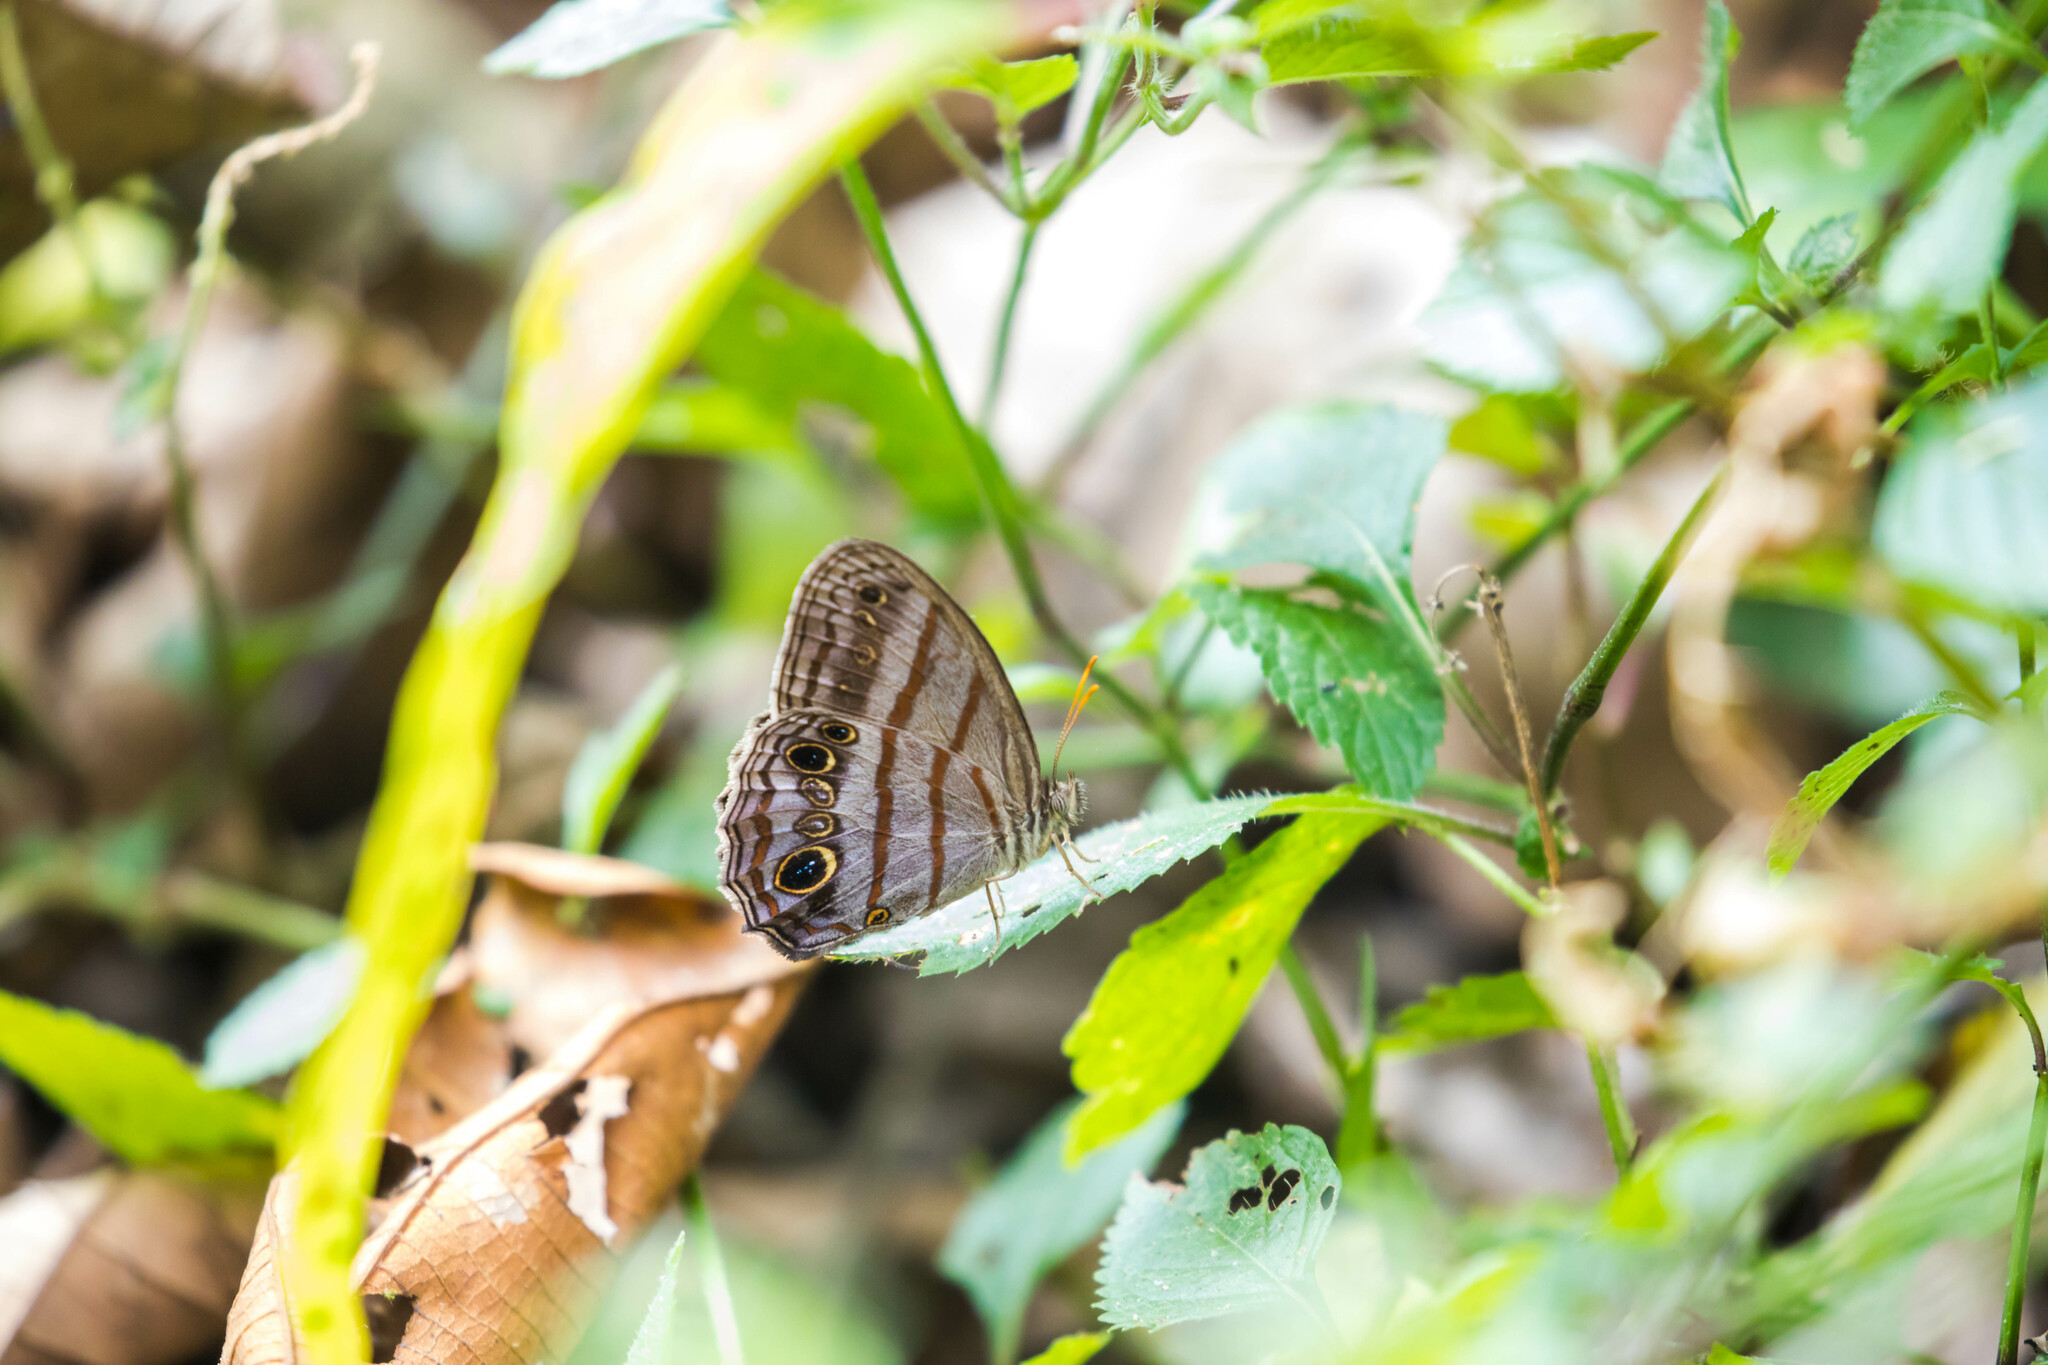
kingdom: Animalia
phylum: Arthropoda
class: Insecta
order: Lepidoptera
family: Nymphalidae
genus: Magneuptychia
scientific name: Magneuptychia libye
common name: Blue-gray satyr
